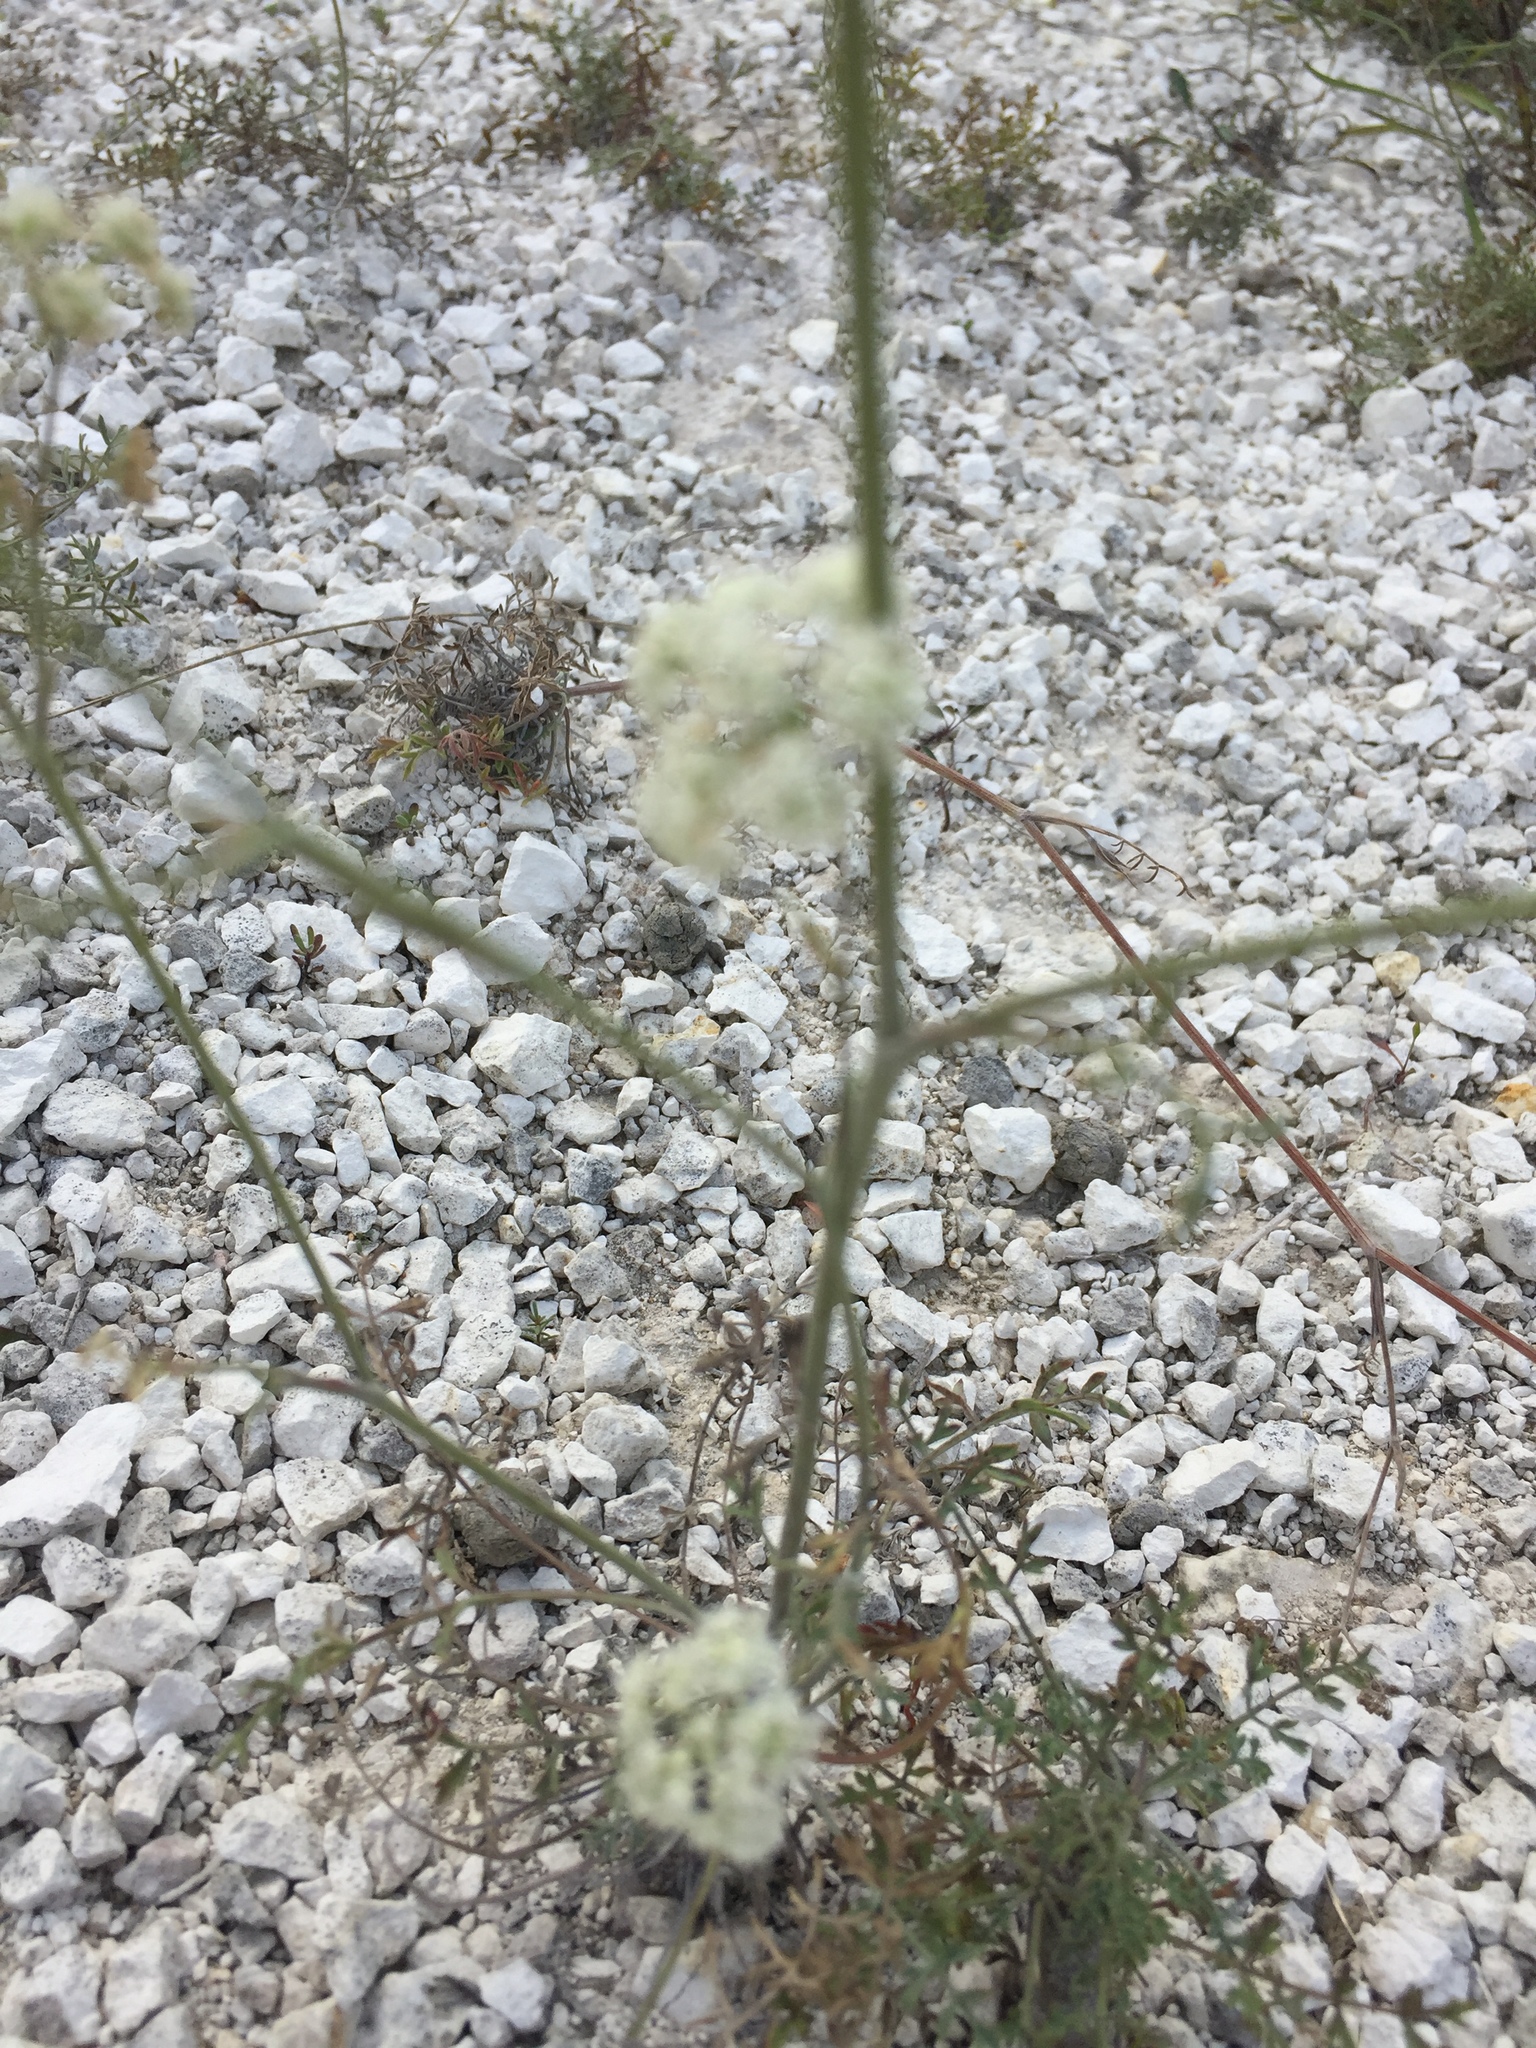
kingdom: Plantae
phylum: Tracheophyta
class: Magnoliopsida
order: Apiales
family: Apiaceae
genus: Pimpinella
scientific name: Pimpinella tragium
